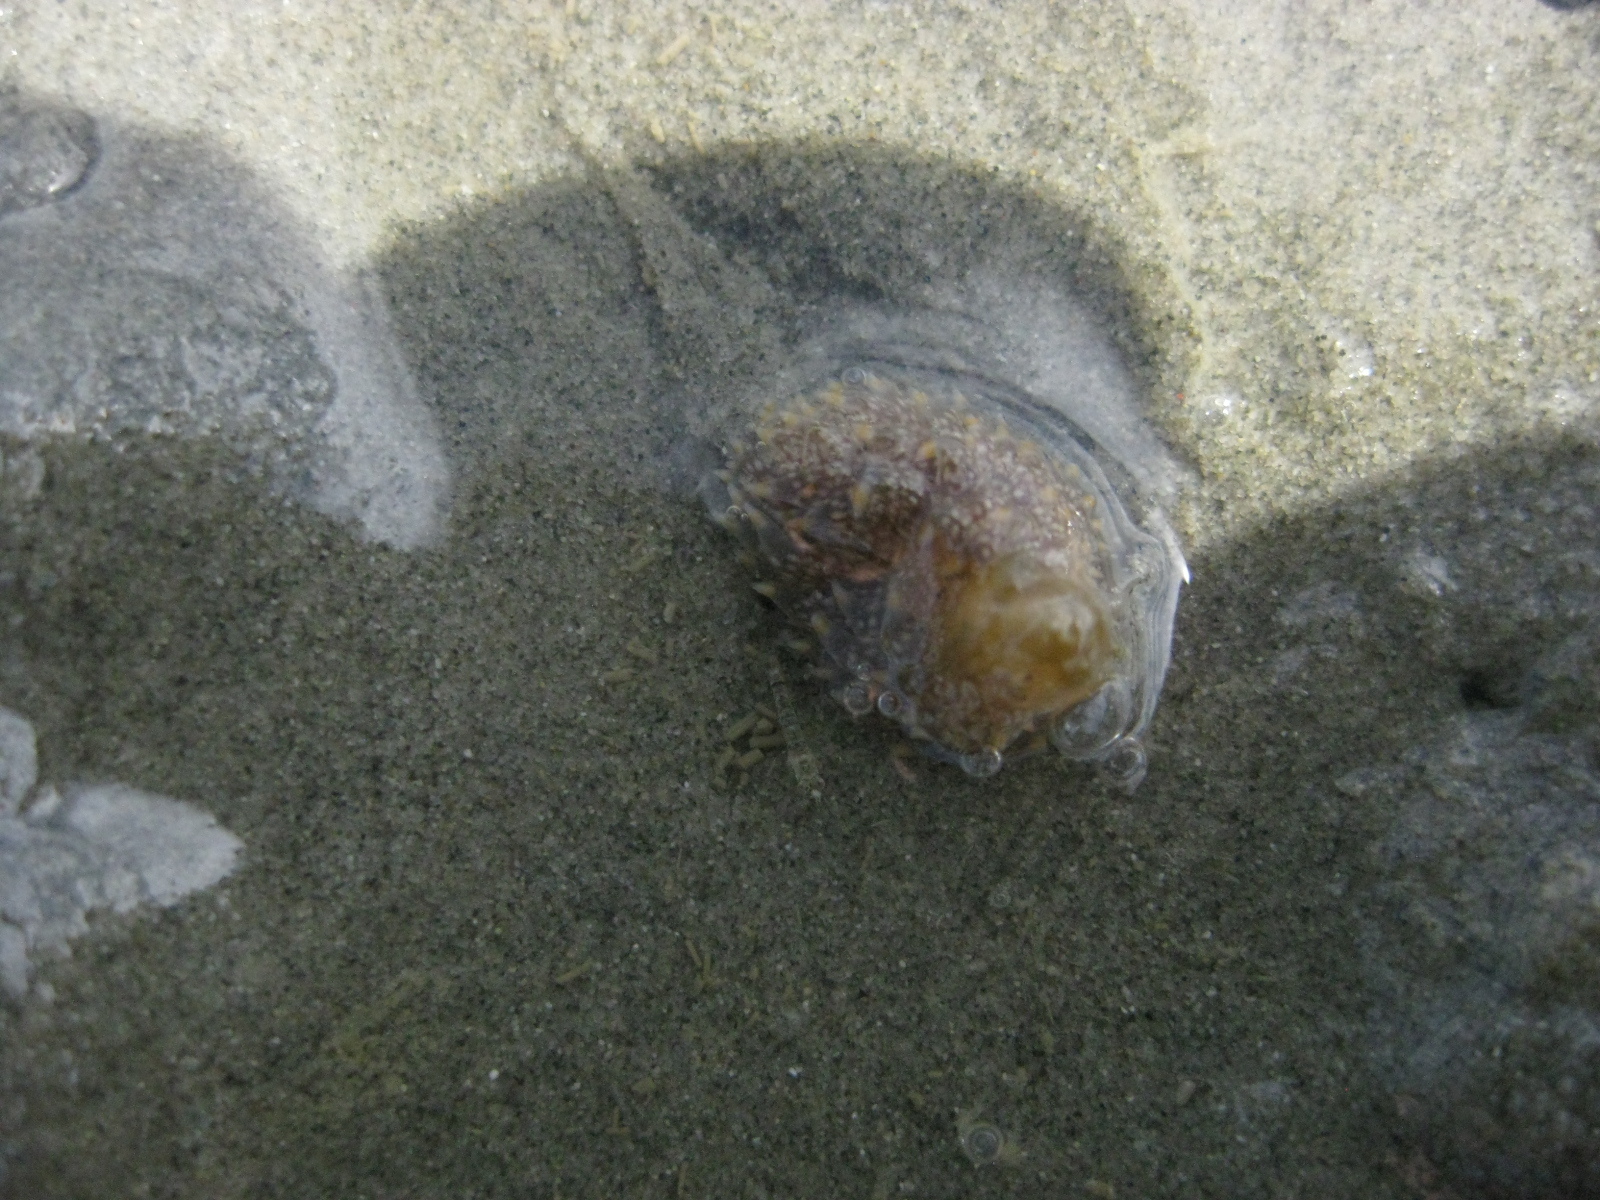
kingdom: Animalia
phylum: Mollusca
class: Gastropoda
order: Nudibranchia
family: Aeolidiidae
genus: Baeolidia
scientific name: Baeolidia australis
